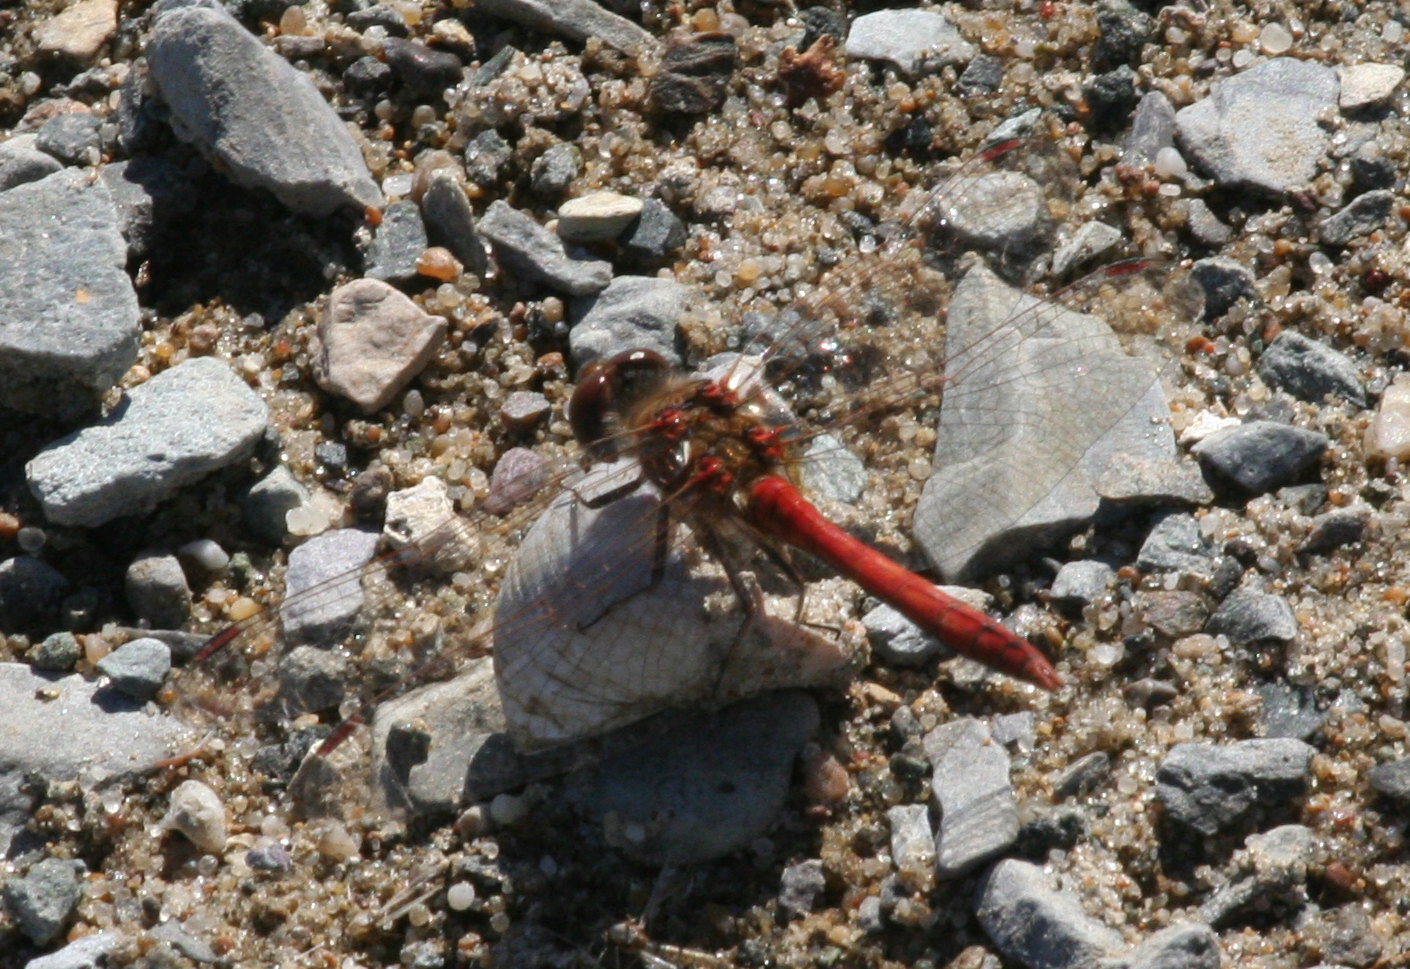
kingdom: Animalia
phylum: Arthropoda
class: Insecta
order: Odonata
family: Libellulidae
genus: Sympetrum
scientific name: Sympetrum vulgatum
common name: Vagrant darter
